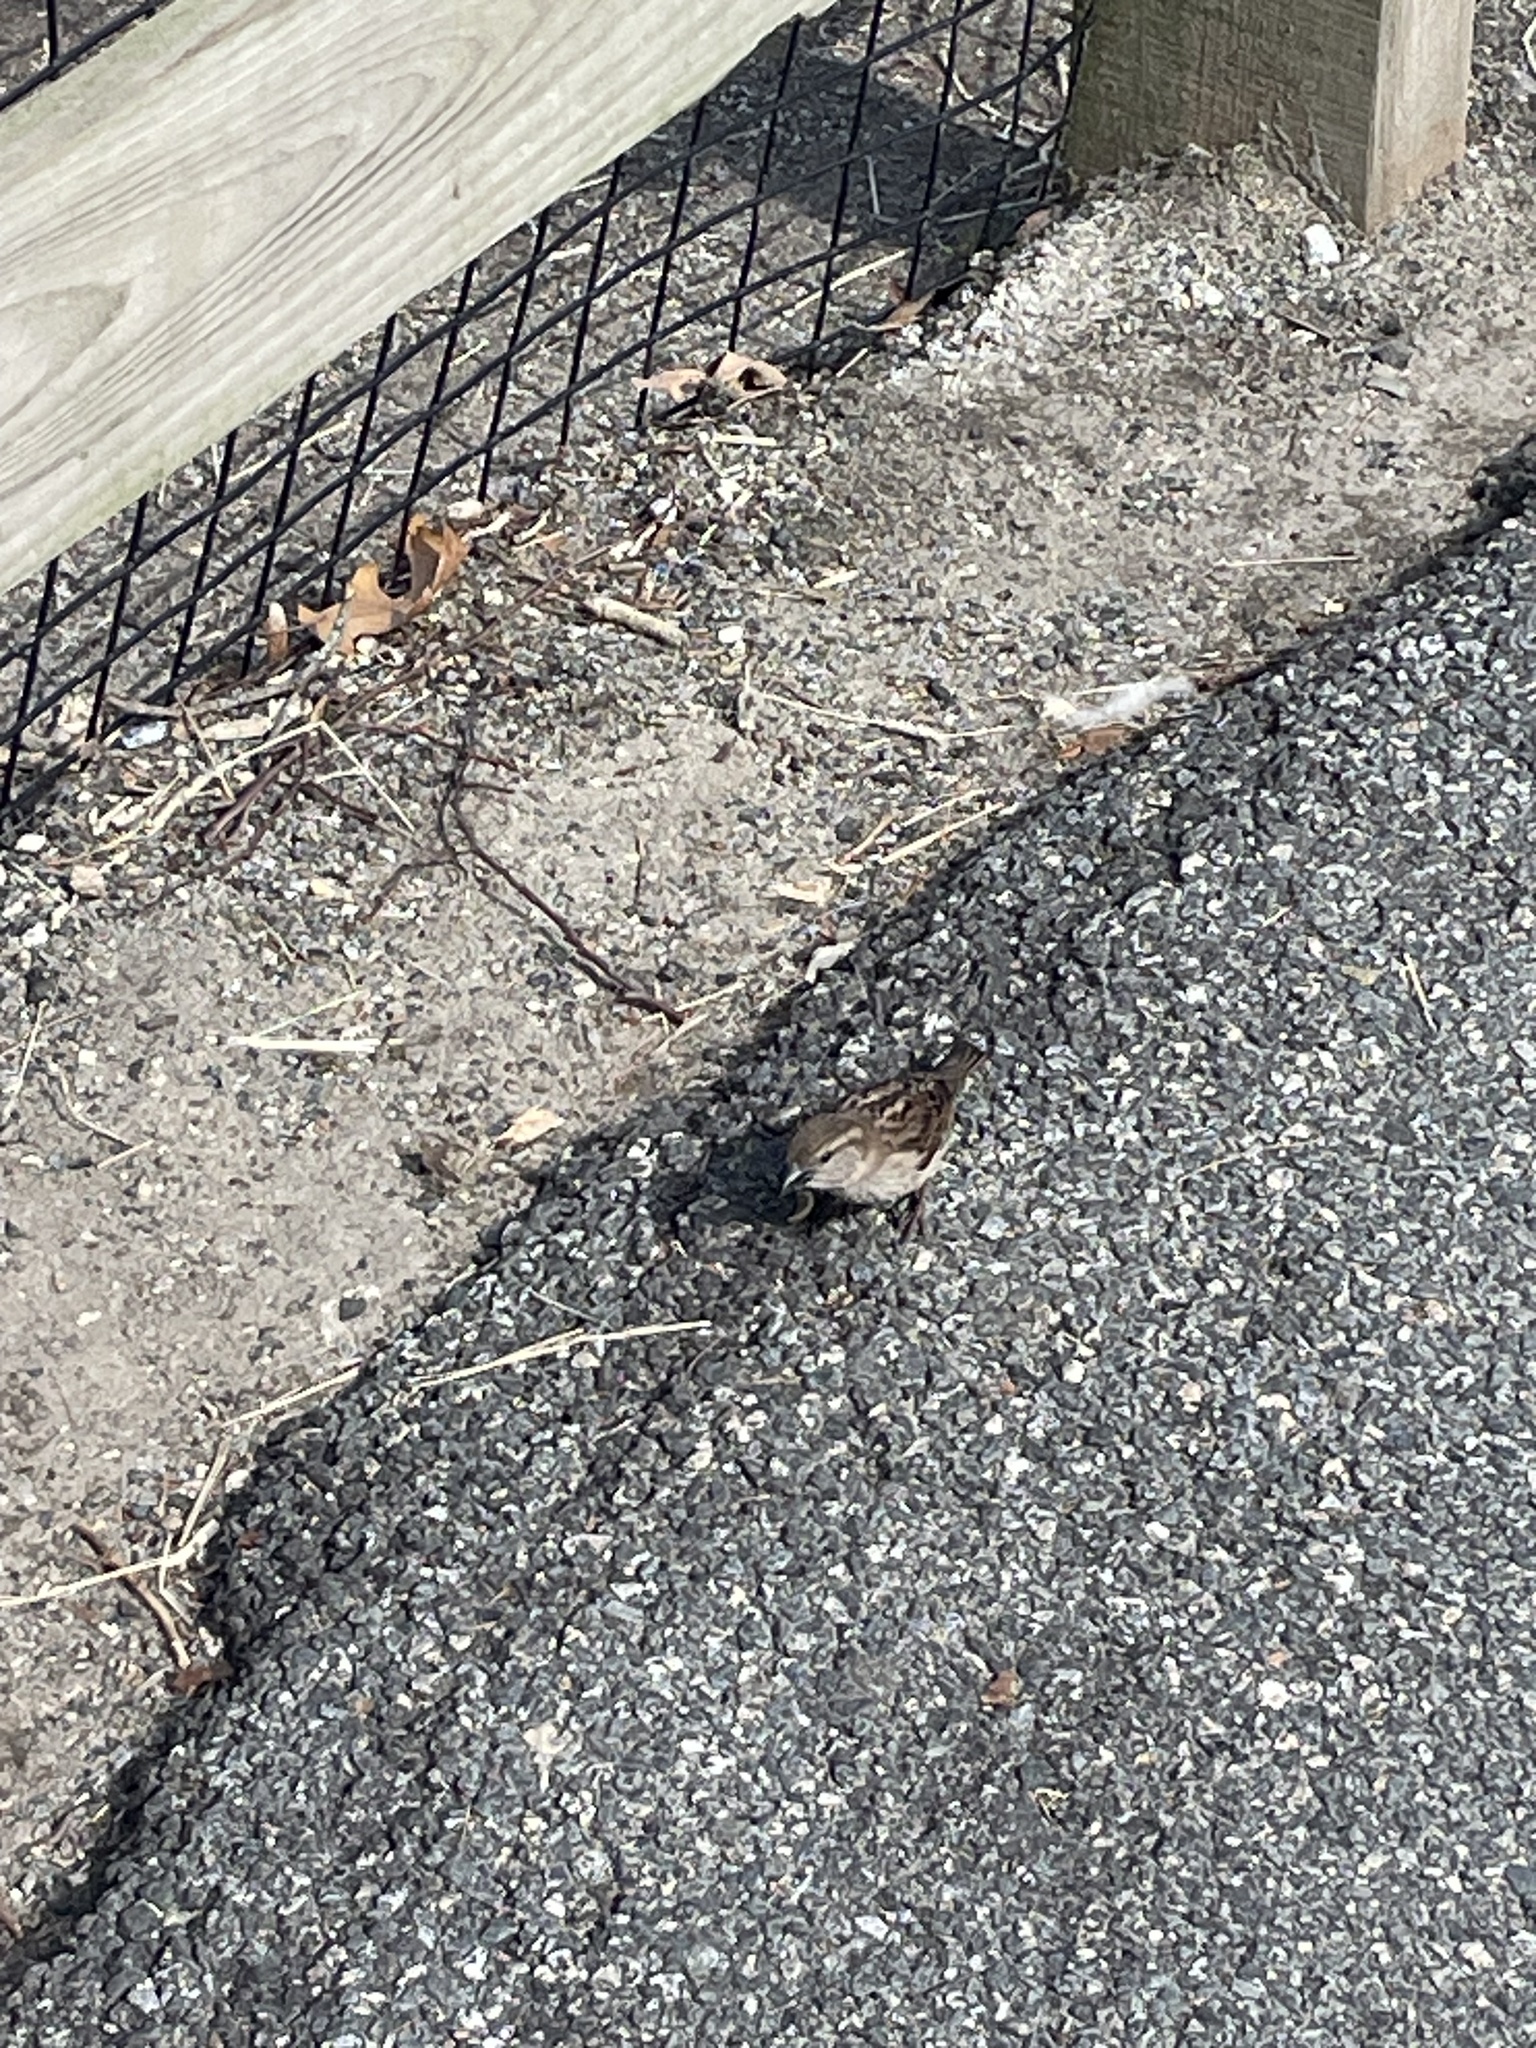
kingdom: Animalia
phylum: Chordata
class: Aves
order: Passeriformes
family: Passeridae
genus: Passer
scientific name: Passer domesticus
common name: House sparrow
